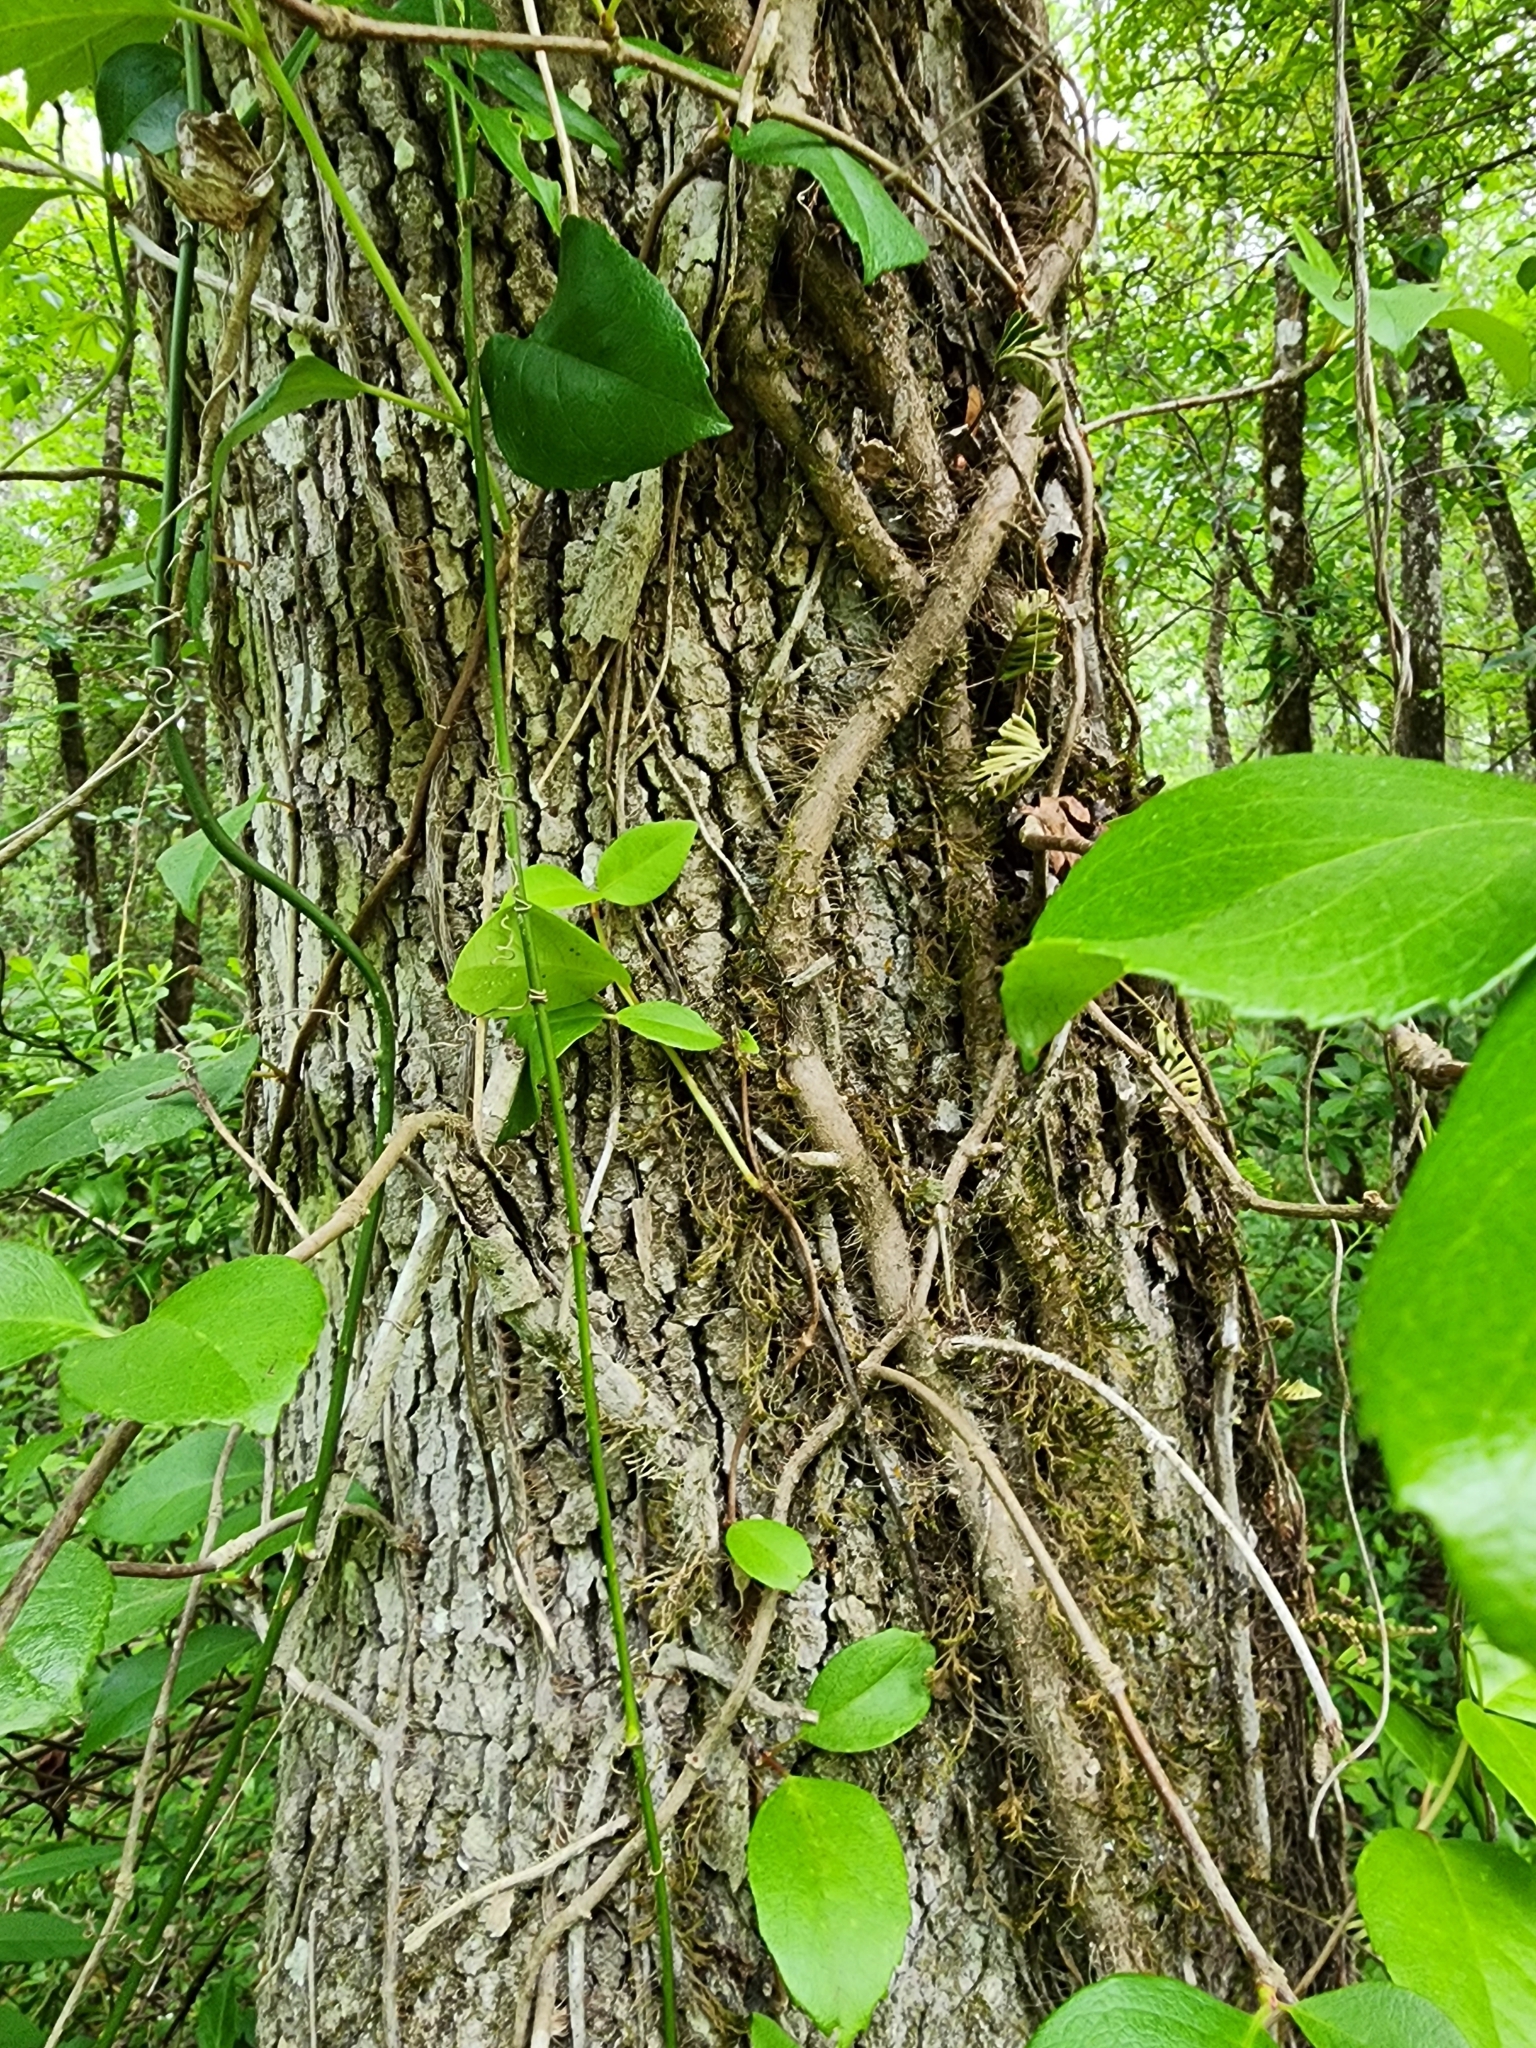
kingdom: Plantae
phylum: Tracheophyta
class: Magnoliopsida
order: Cornales
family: Hydrangeaceae
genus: Hydrangea
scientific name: Hydrangea barbara
